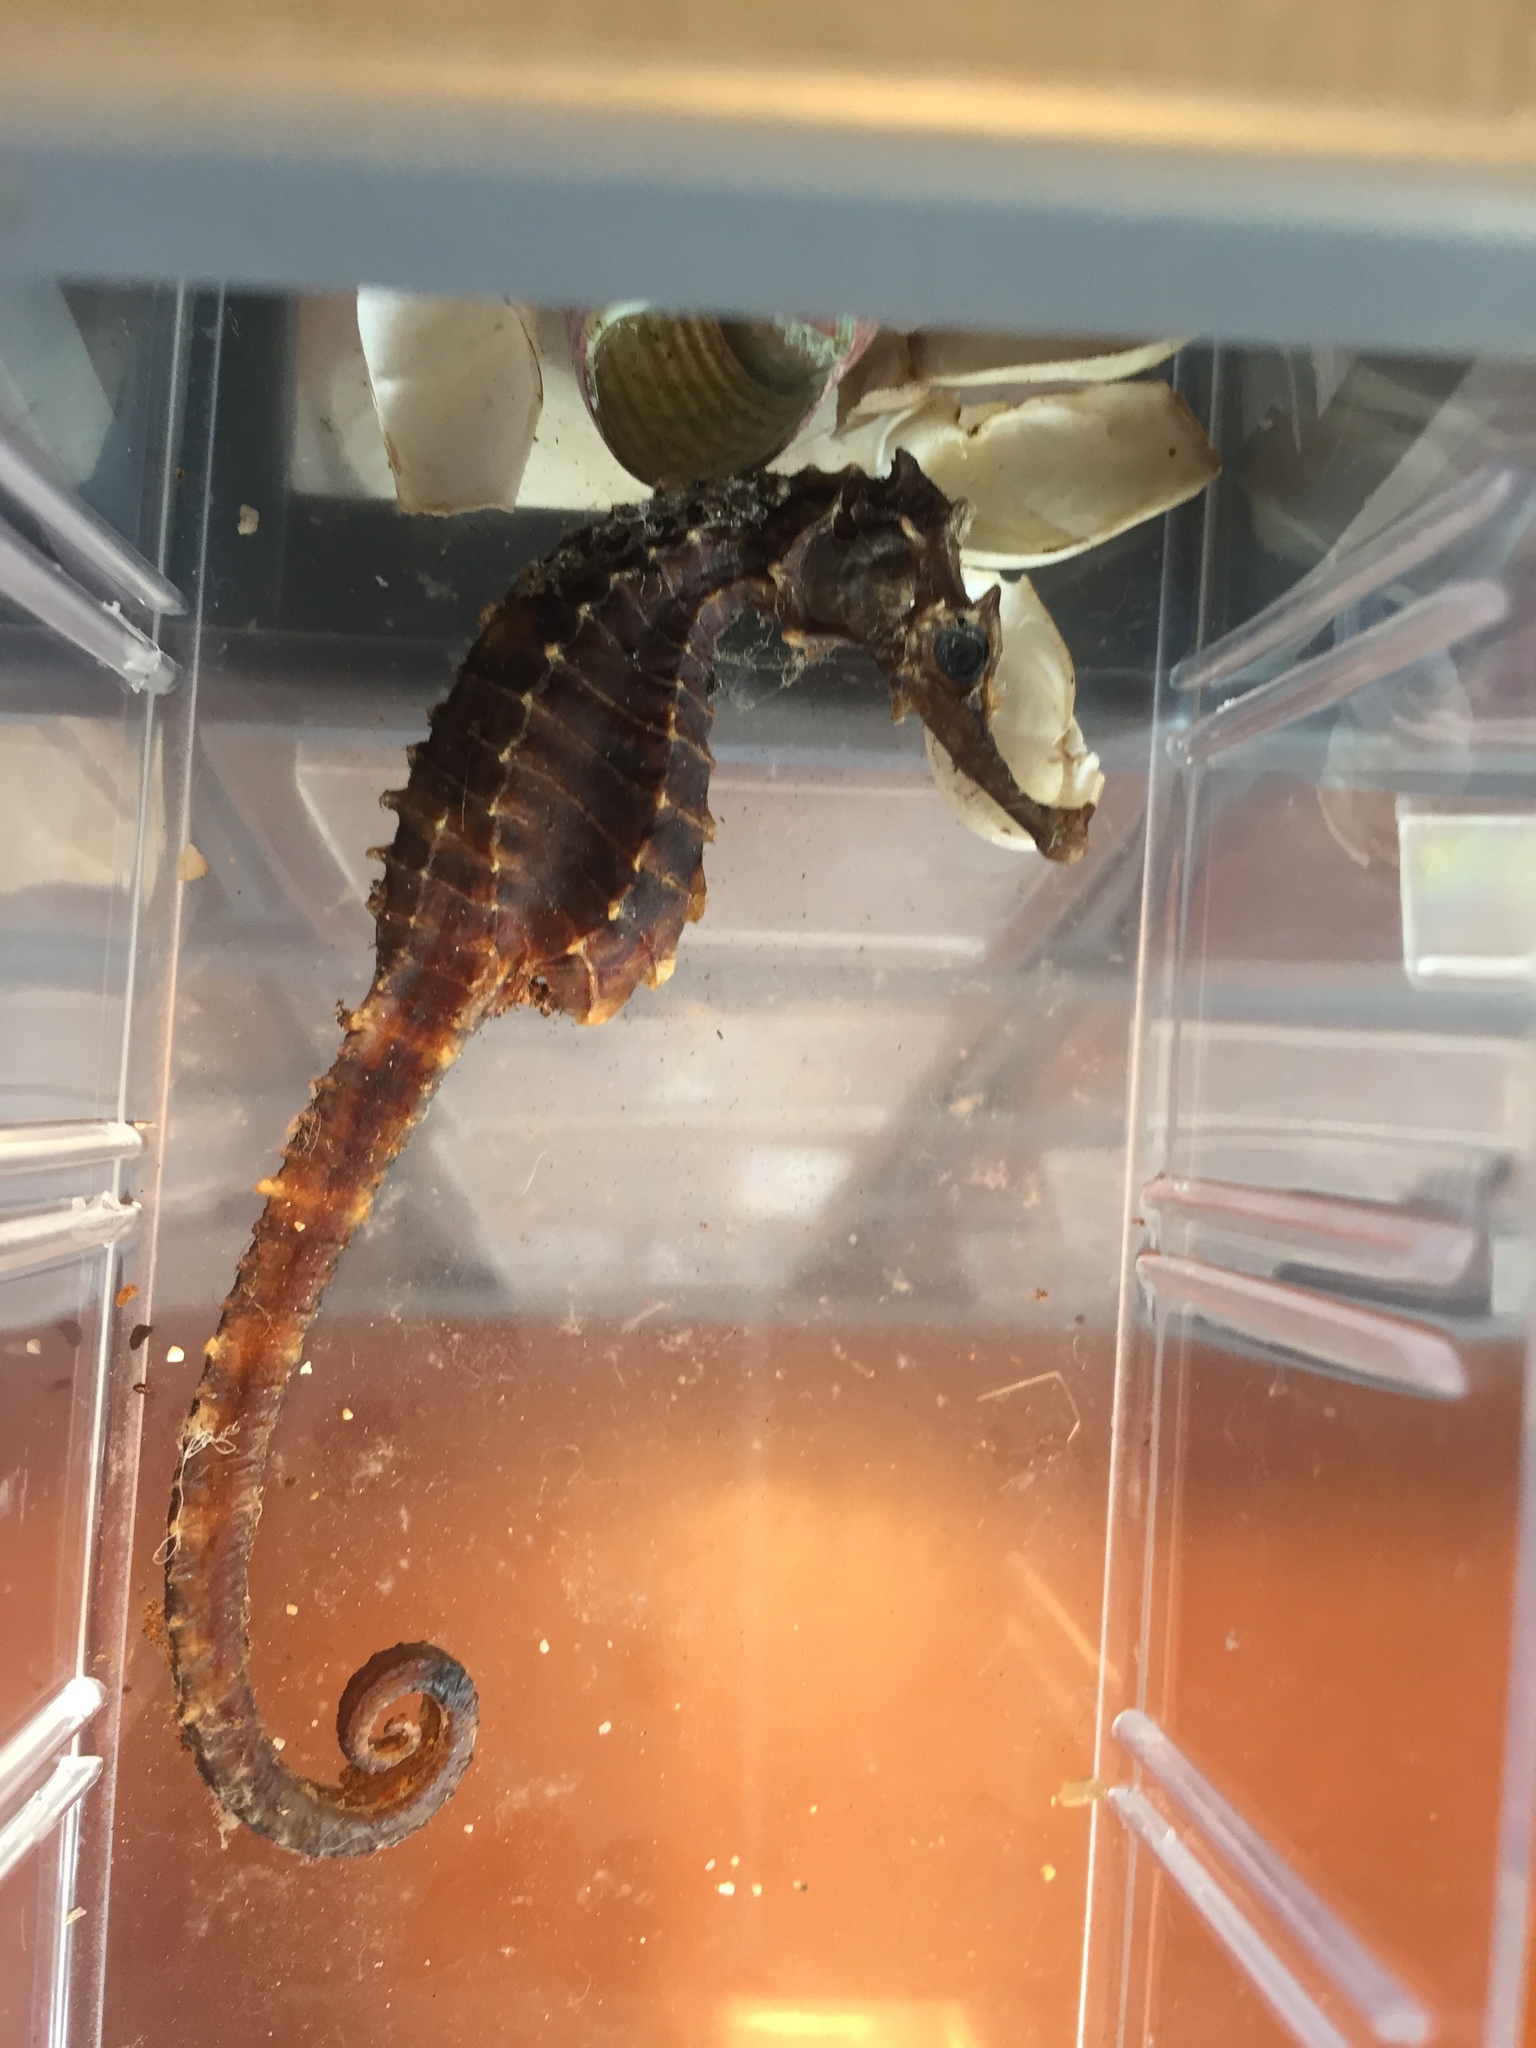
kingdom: Animalia
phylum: Chordata
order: Syngnathiformes
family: Syngnathidae
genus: Hippocampus
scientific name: Hippocampus abdominalis
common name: Big-belly seahorse
